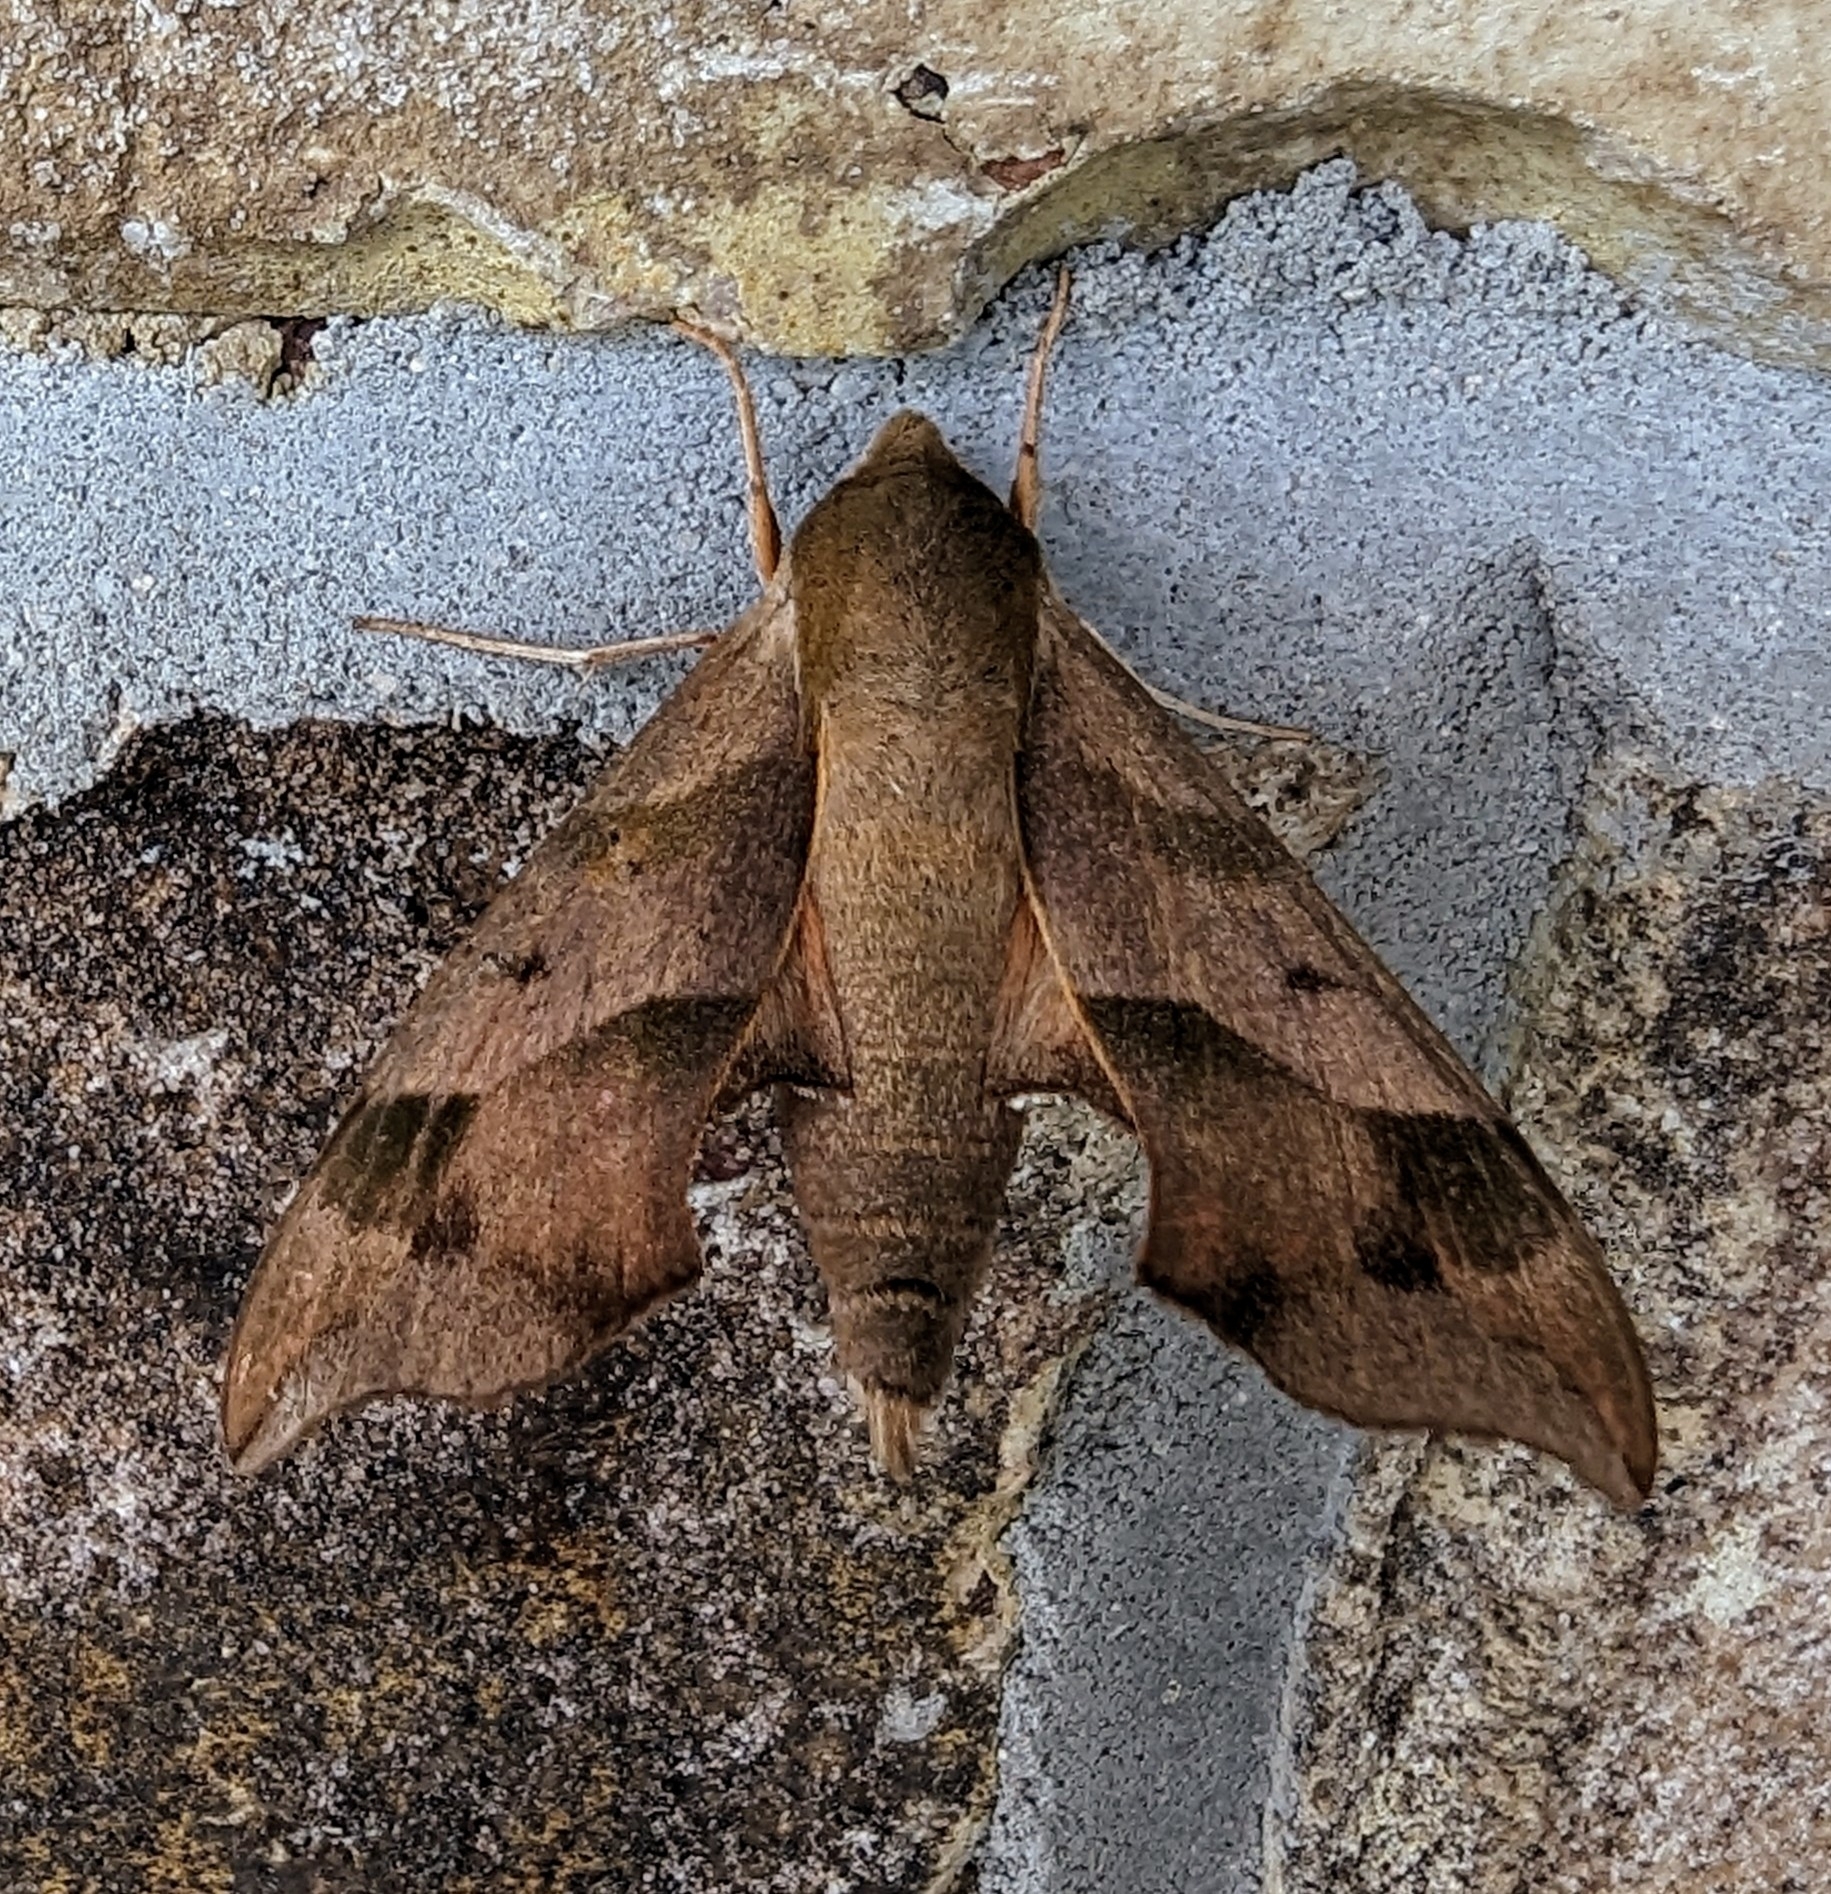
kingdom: Animalia
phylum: Arthropoda
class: Insecta
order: Lepidoptera
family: Sphingidae
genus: Darapsa
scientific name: Darapsa myron
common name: Hog sphinx
